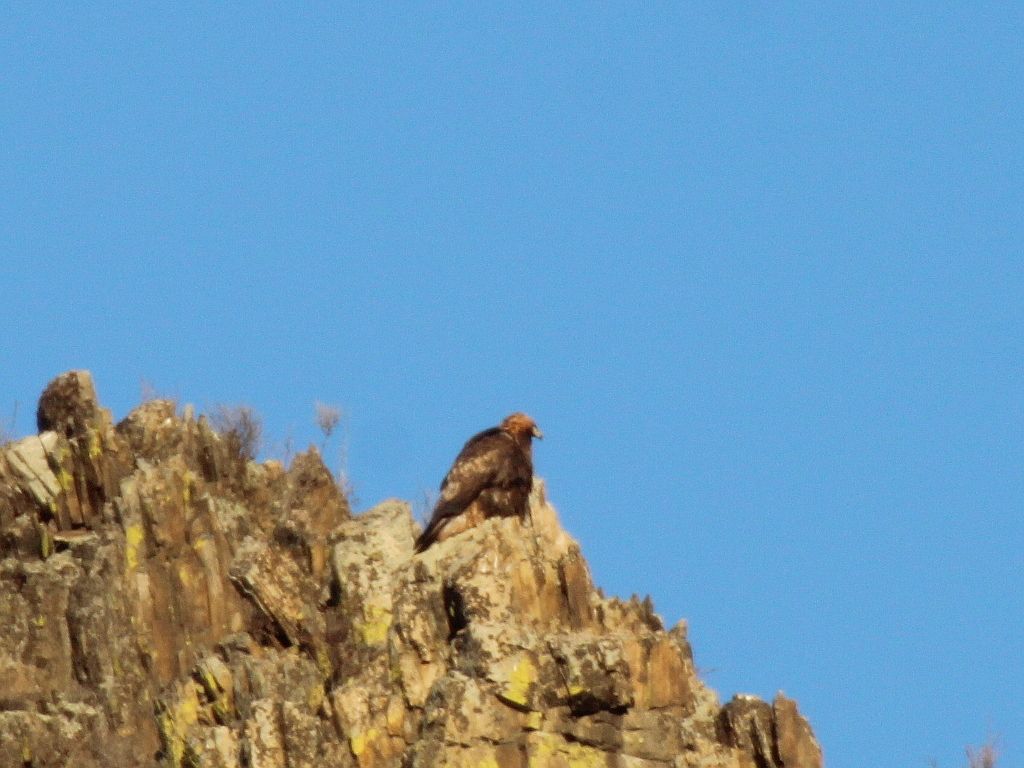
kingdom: Animalia
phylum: Chordata
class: Aves
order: Accipitriformes
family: Accipitridae
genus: Aquila
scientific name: Aquila chrysaetos
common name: Golden eagle
